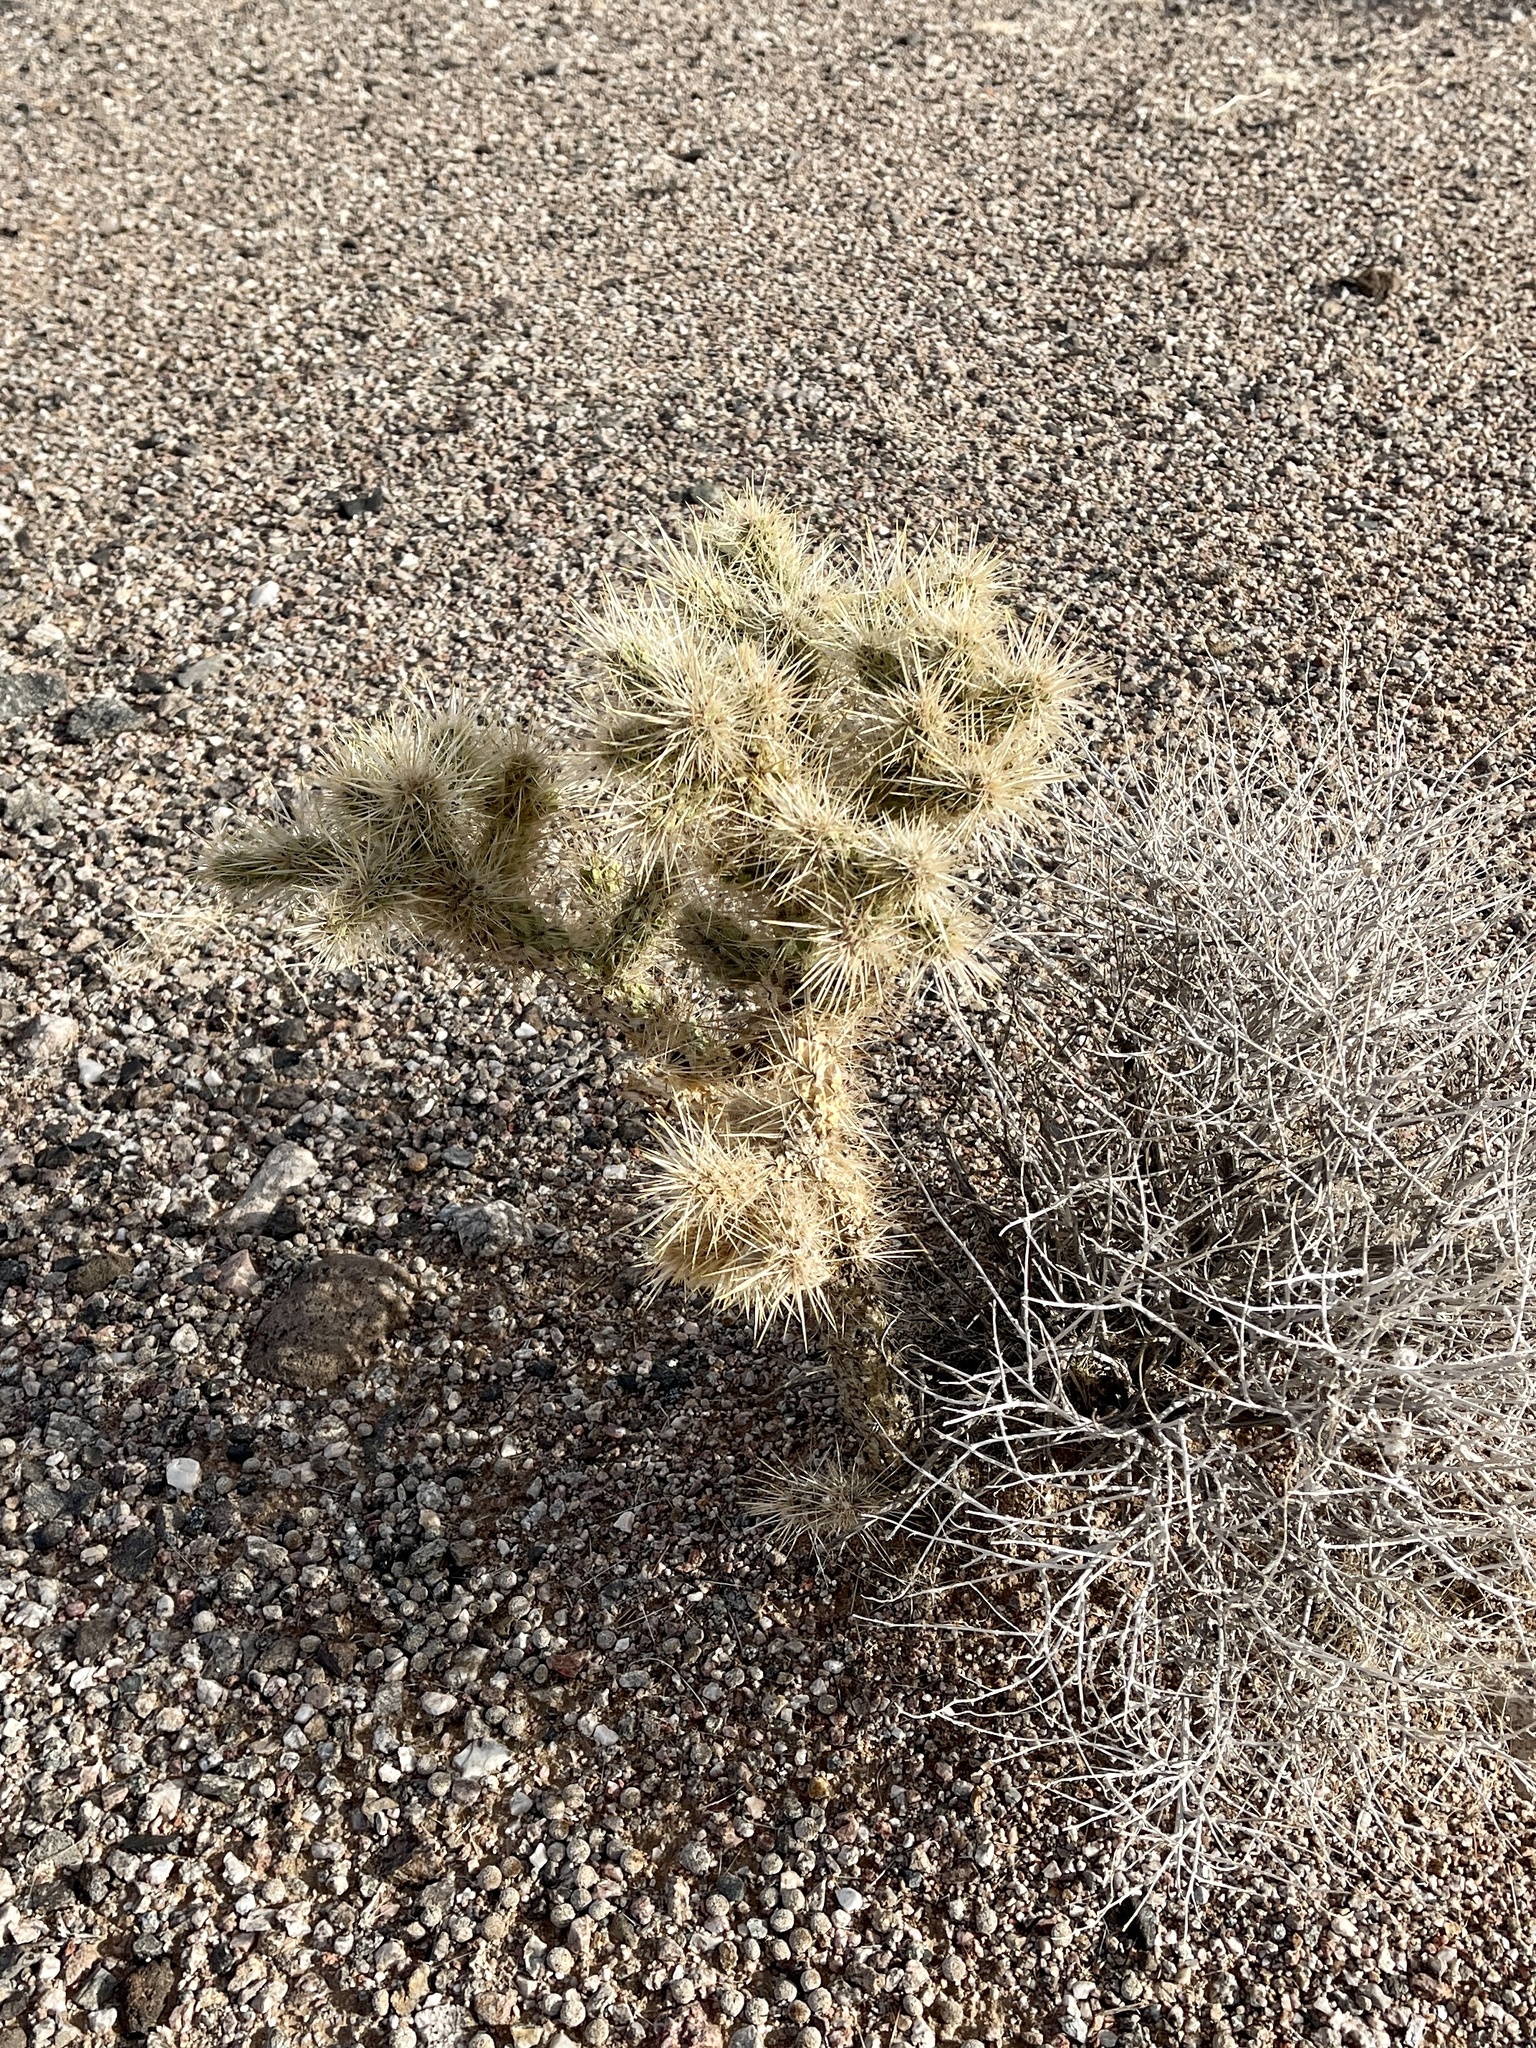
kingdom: Plantae
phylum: Tracheophyta
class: Magnoliopsida
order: Caryophyllales
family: Cactaceae
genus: Cylindropuntia
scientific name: Cylindropuntia echinocarpa
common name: Ground cholla
